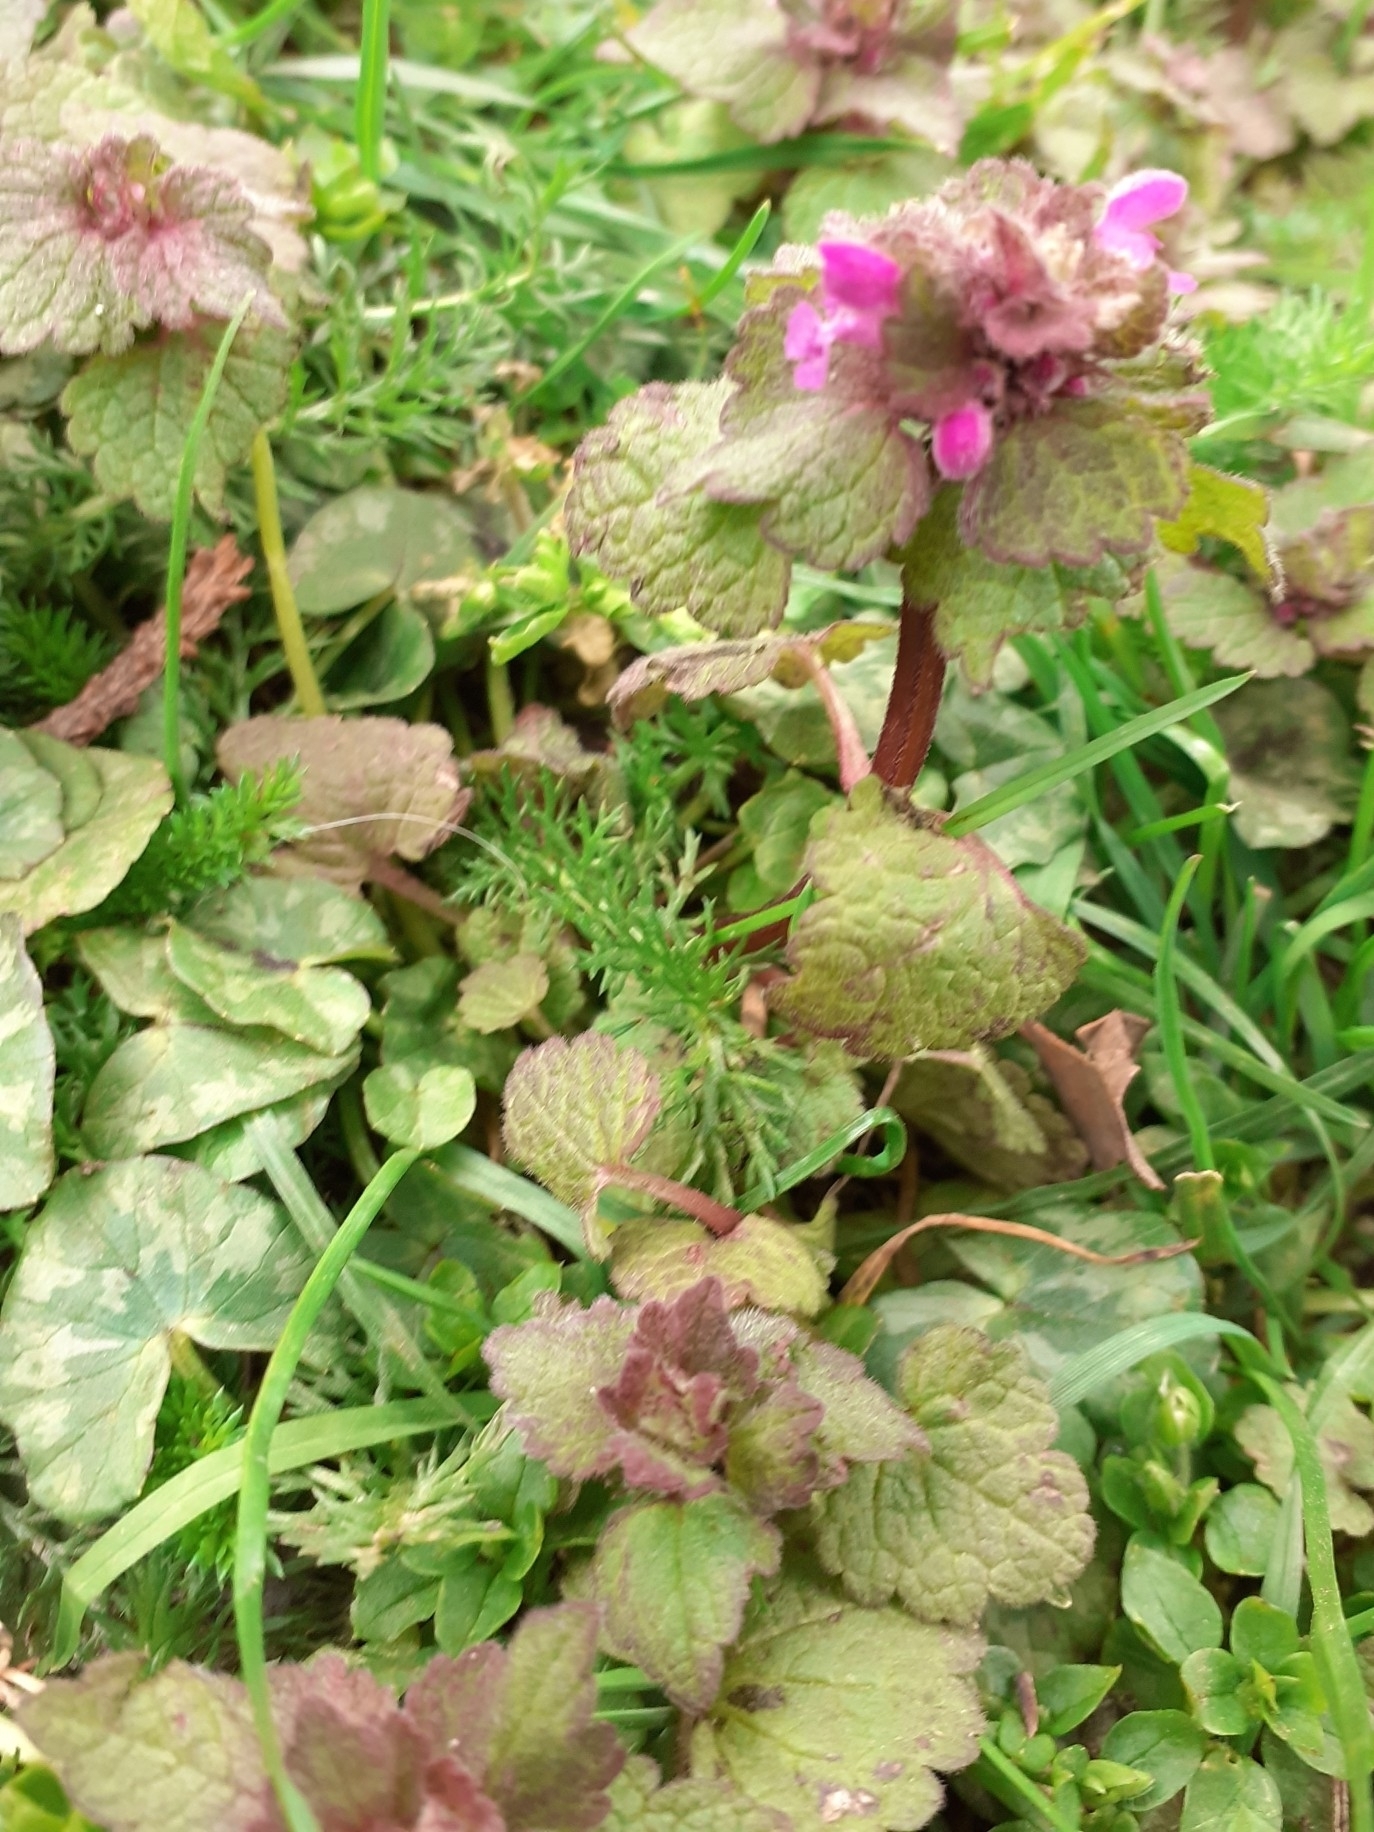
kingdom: Plantae
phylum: Tracheophyta
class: Magnoliopsida
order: Lamiales
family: Lamiaceae
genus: Lamium
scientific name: Lamium purpureum
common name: Red dead-nettle
